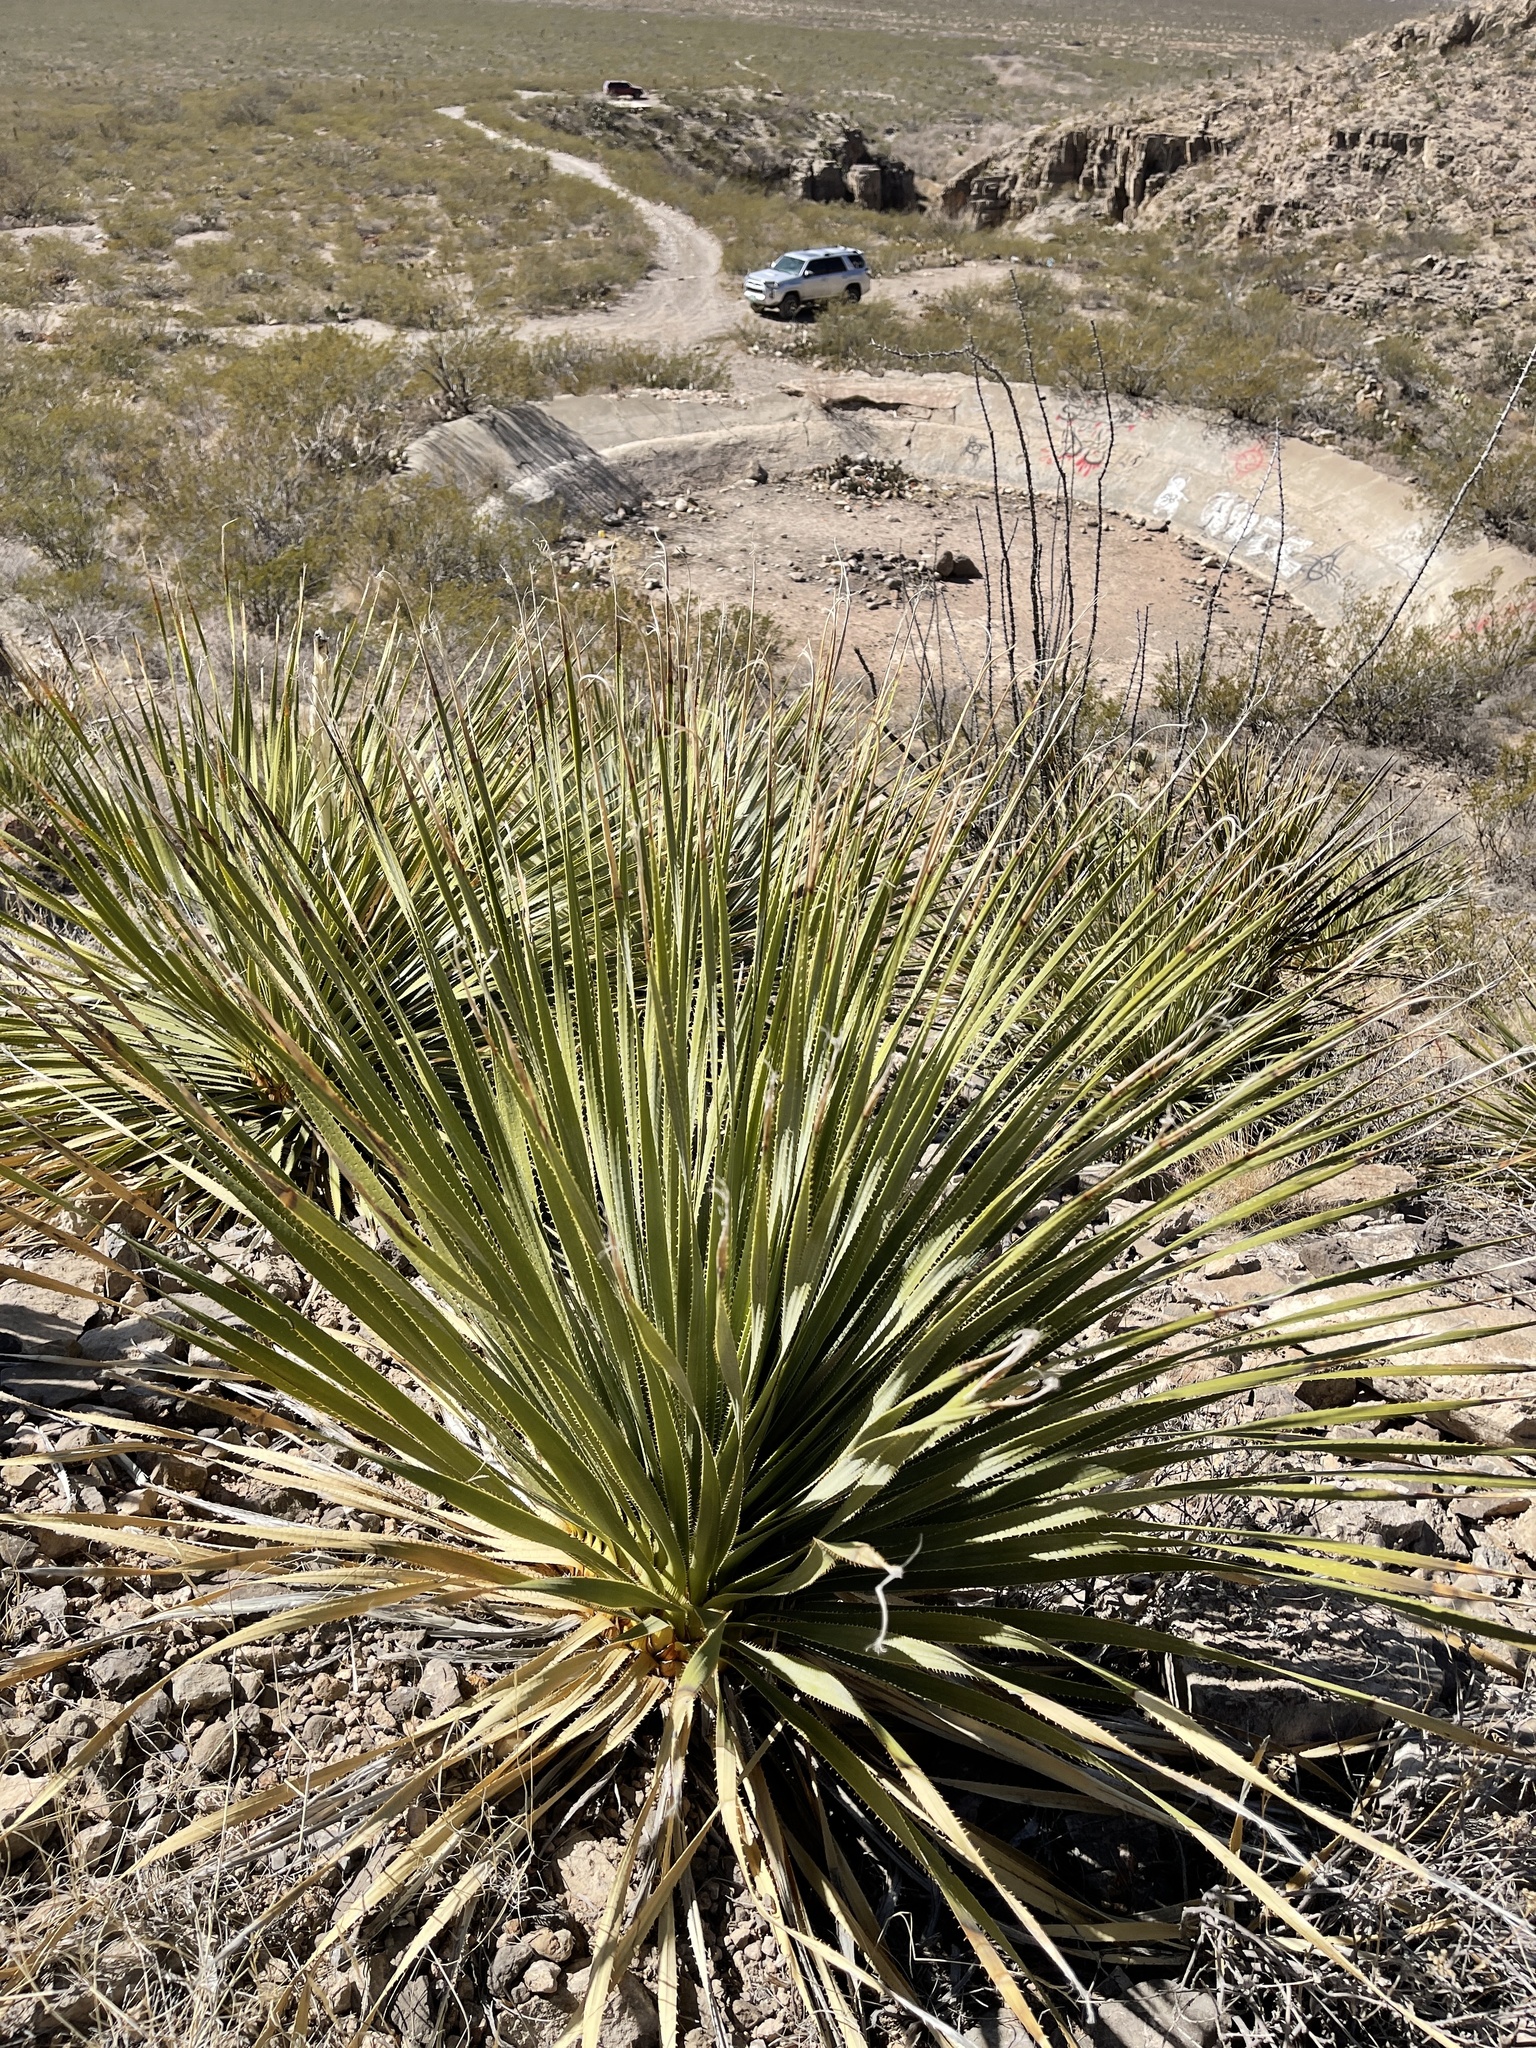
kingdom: Plantae
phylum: Tracheophyta
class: Liliopsida
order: Asparagales
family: Asparagaceae
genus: Dasylirion
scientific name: Dasylirion wheeleri
